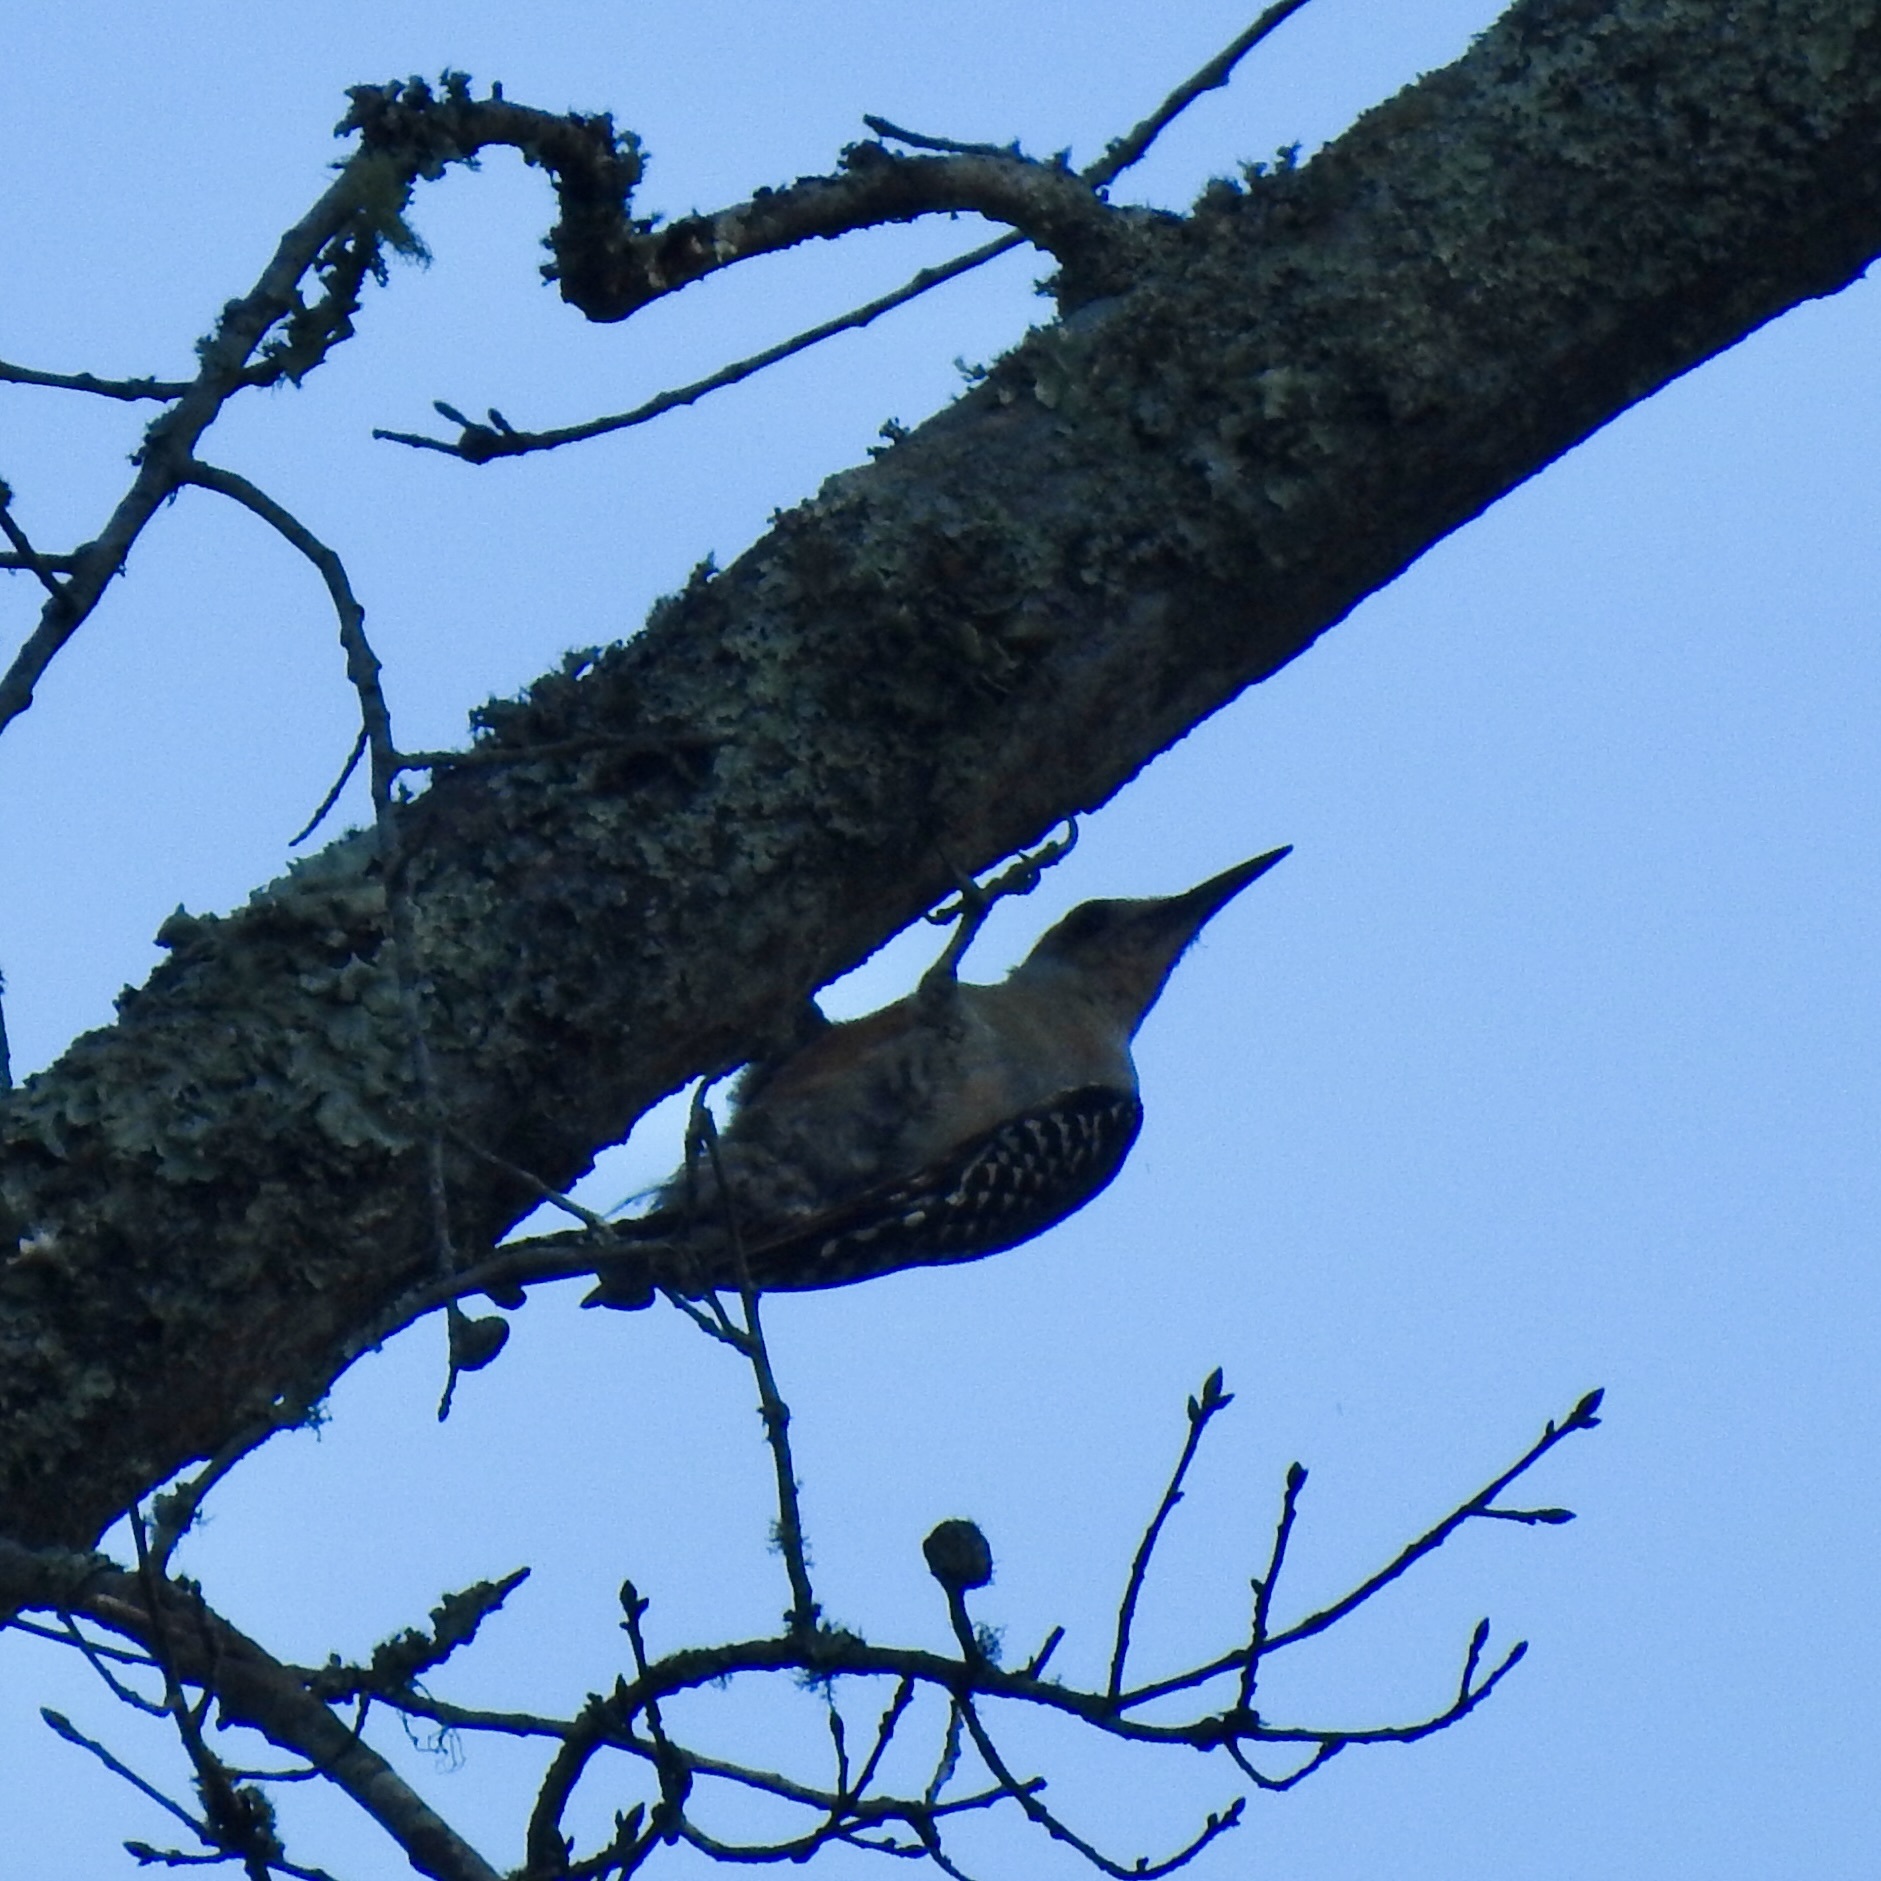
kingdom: Animalia
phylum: Chordata
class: Aves
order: Piciformes
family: Picidae
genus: Melanerpes
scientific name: Melanerpes carolinus
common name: Red-bellied woodpecker
